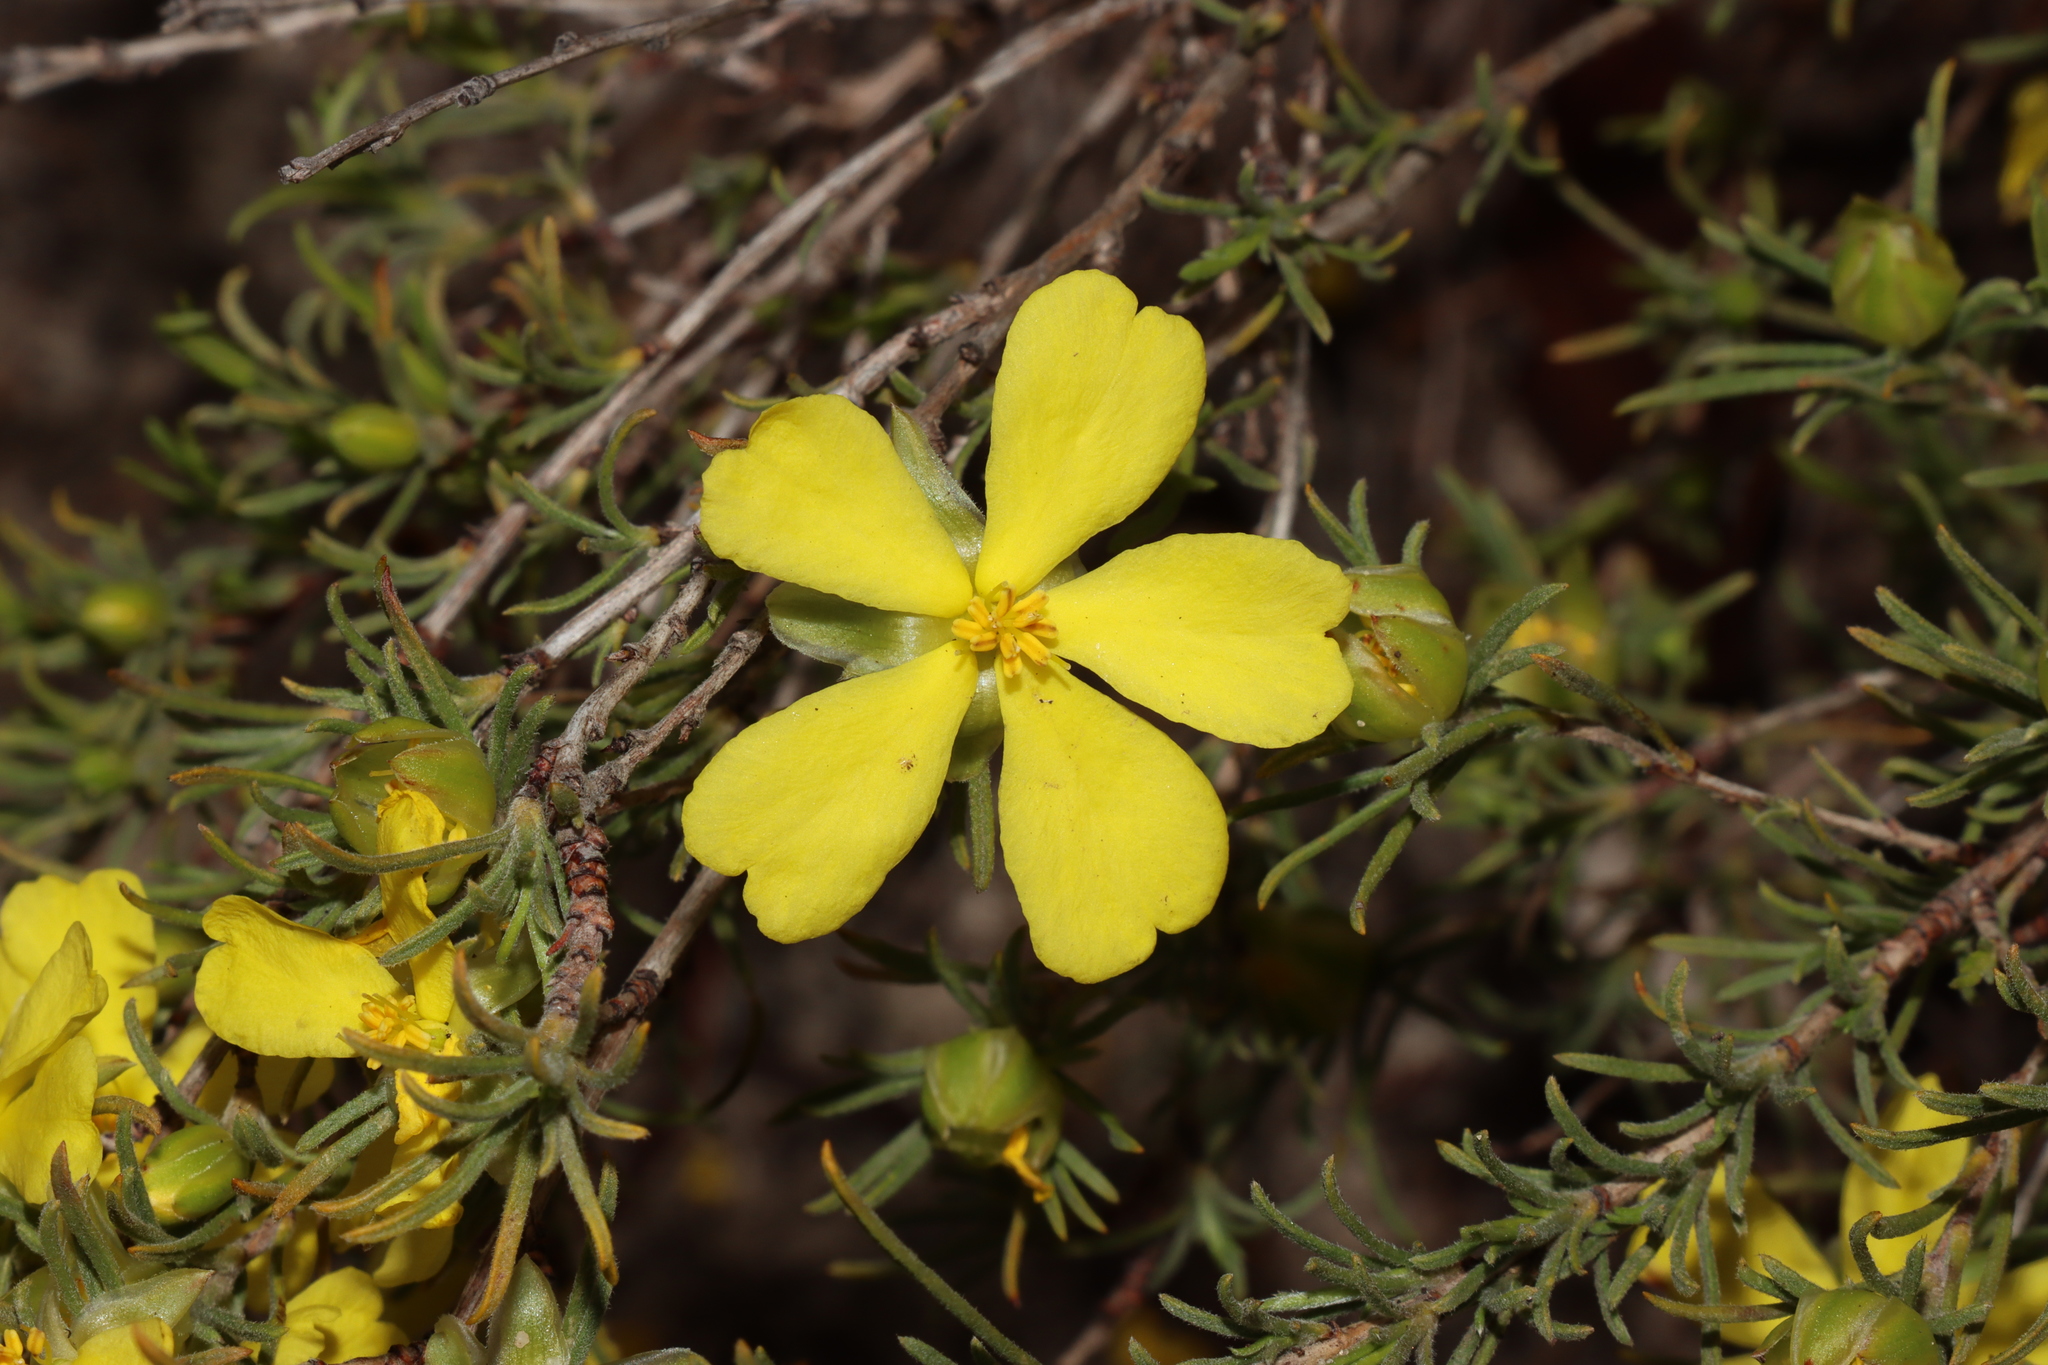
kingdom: Plantae
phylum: Tracheophyta
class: Magnoliopsida
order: Dilleniales
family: Dilleniaceae
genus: Hibbertia
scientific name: Hibbertia virgata
